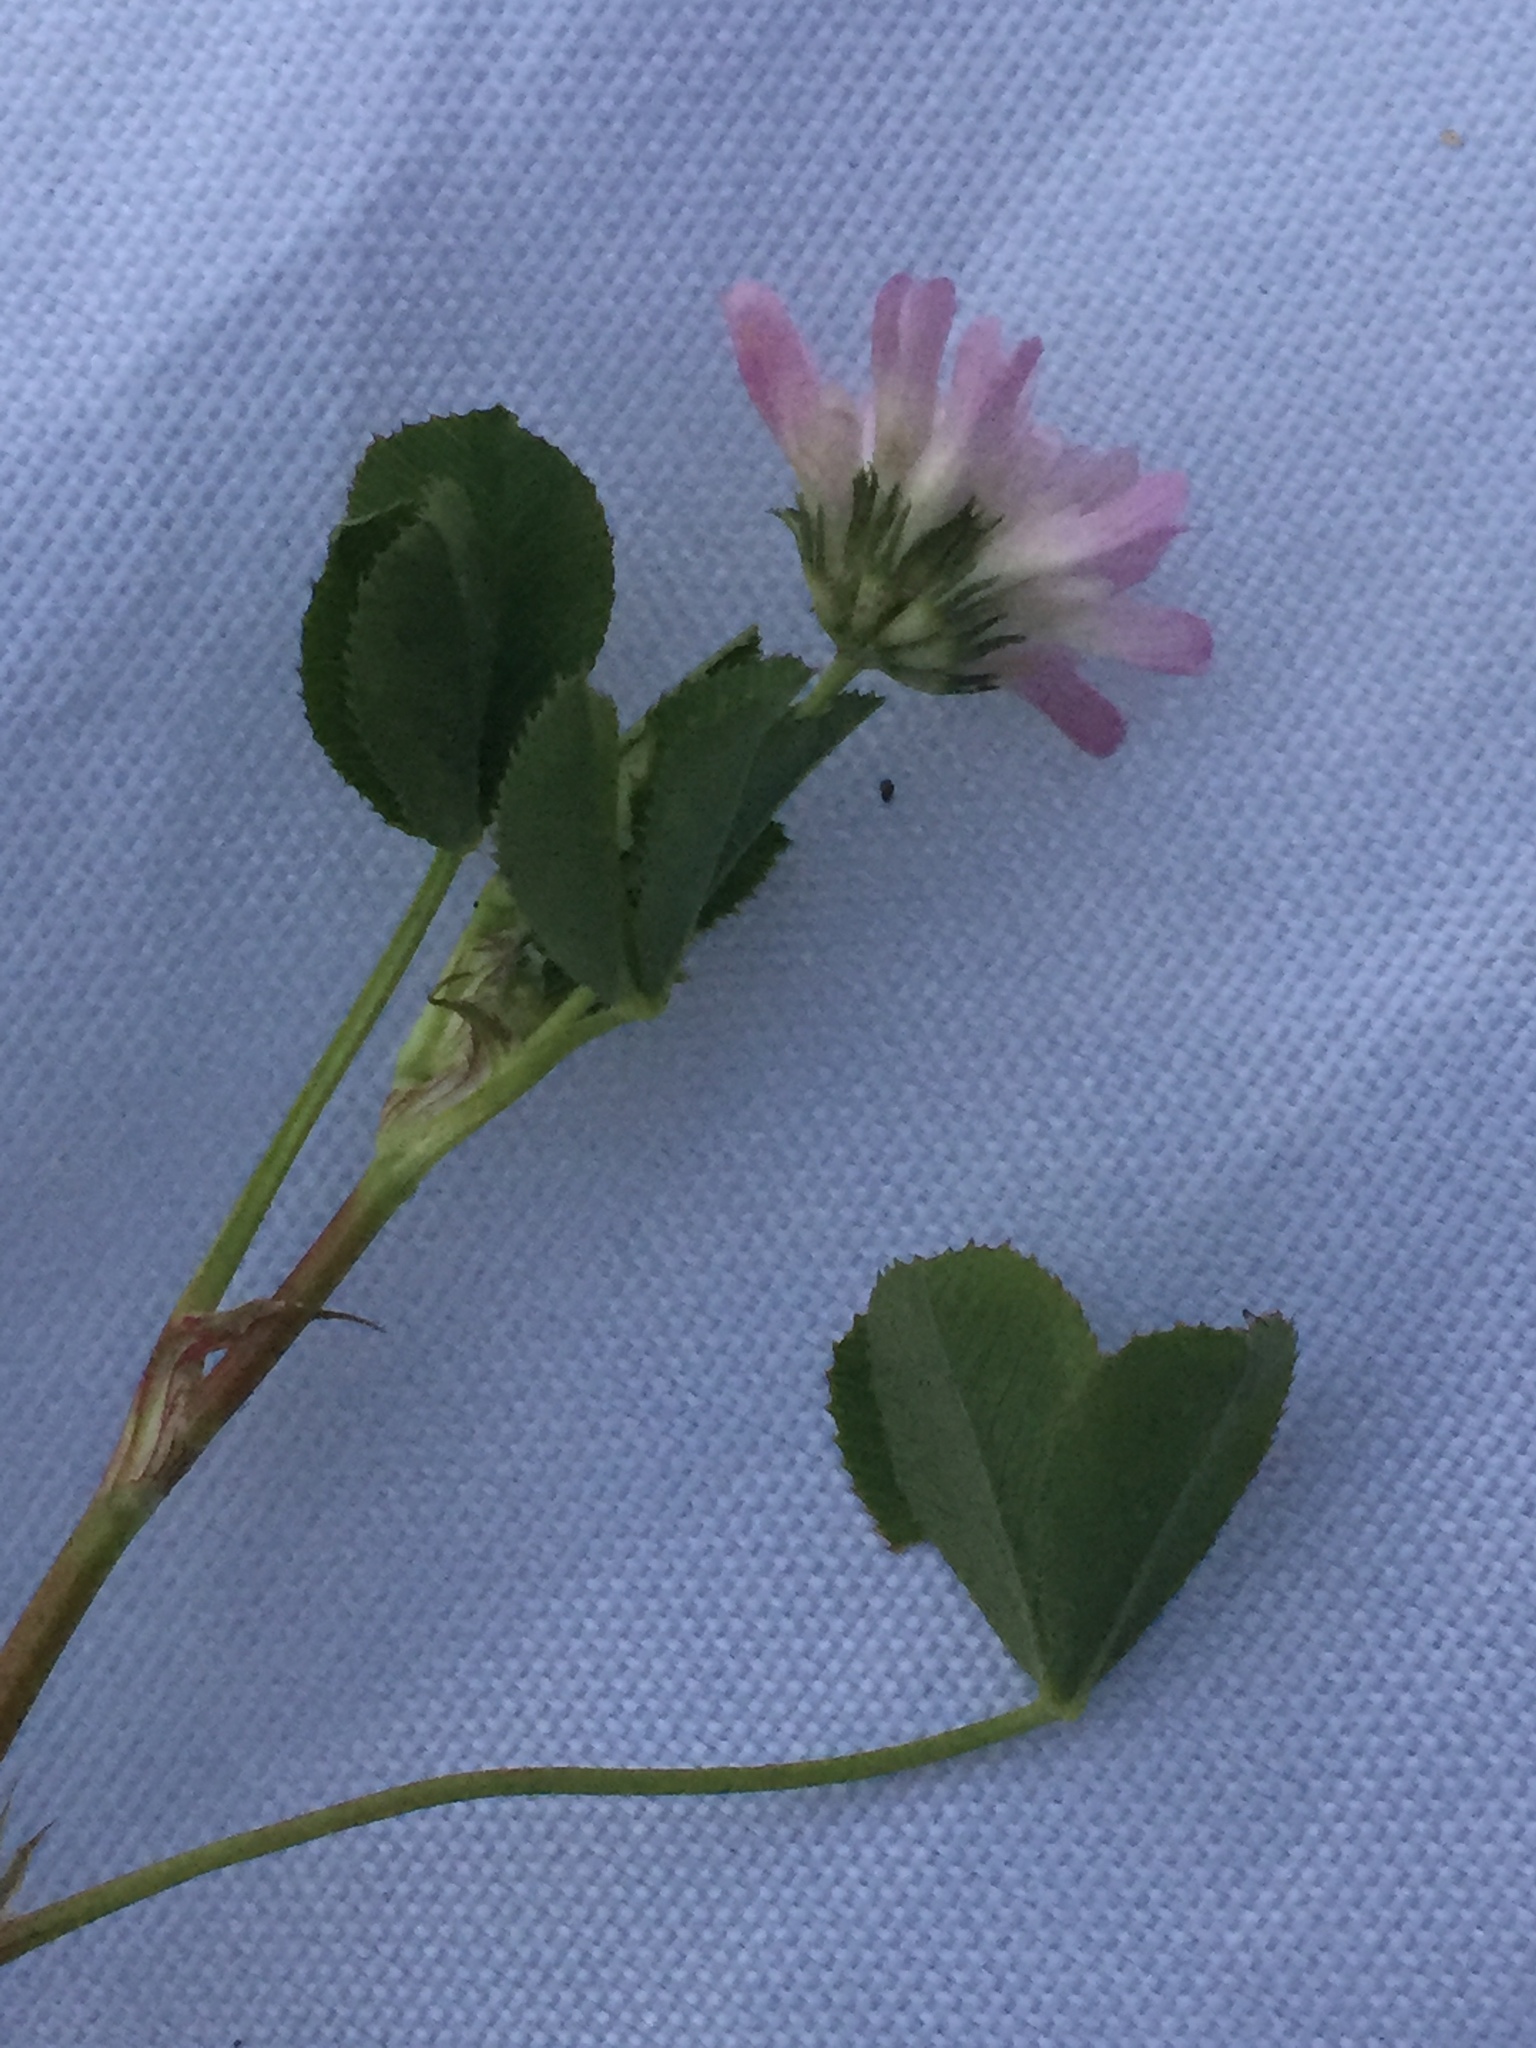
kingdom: Plantae
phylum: Tracheophyta
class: Magnoliopsida
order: Fabales
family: Fabaceae
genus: Trifolium
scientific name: Trifolium resupinatum
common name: Reversed clover
